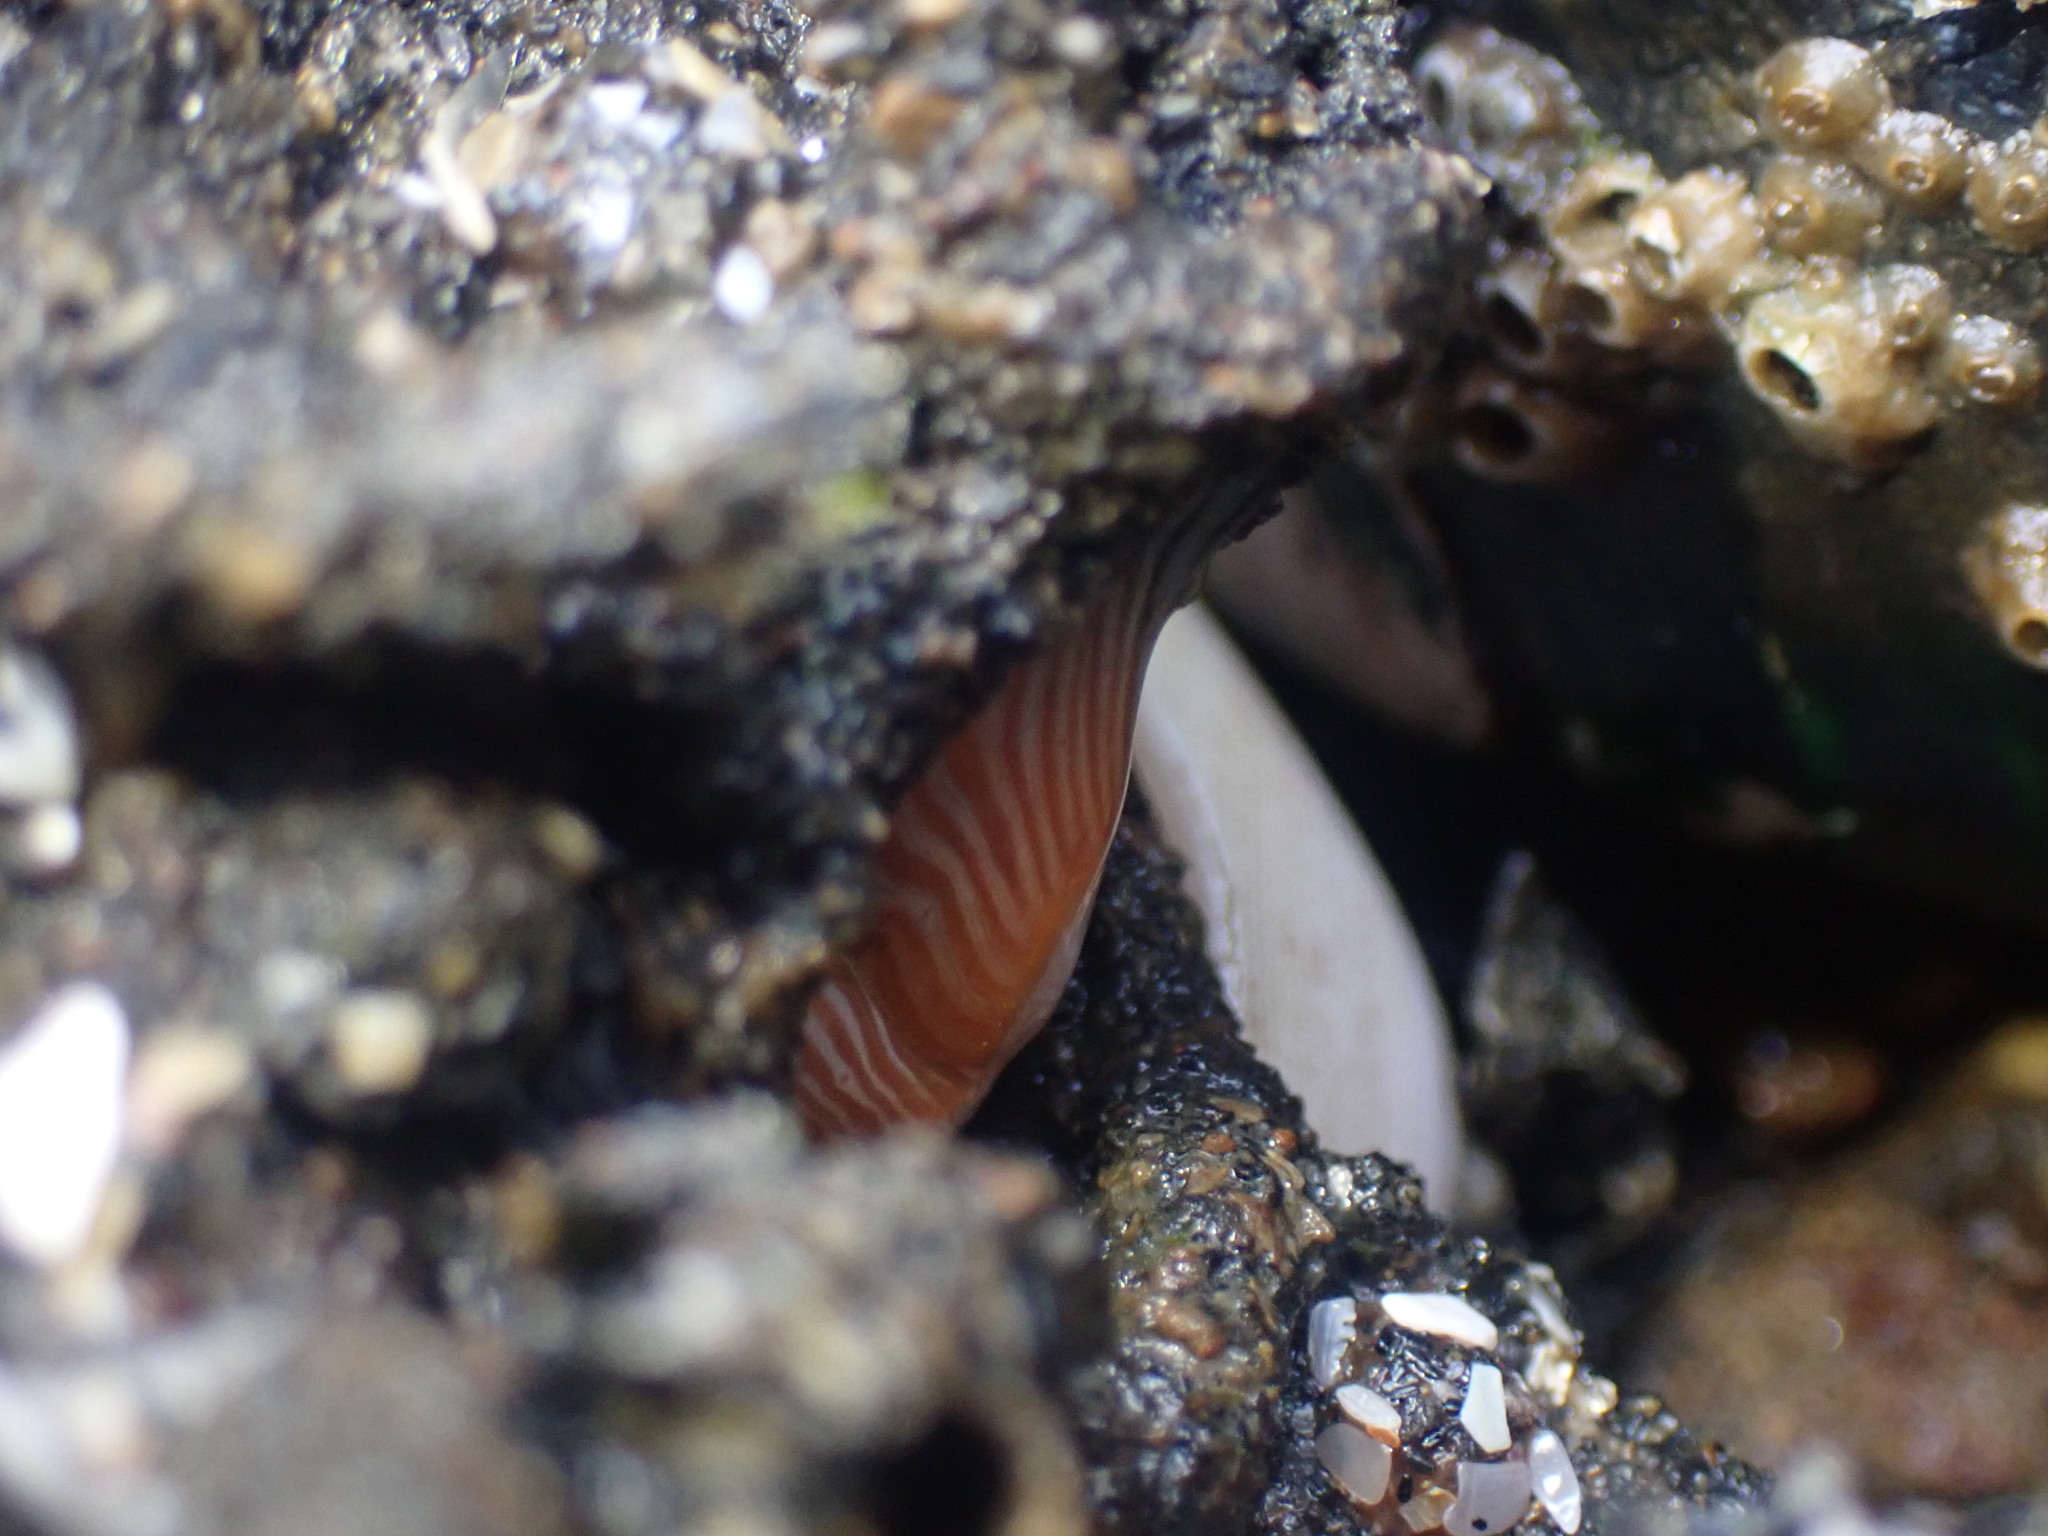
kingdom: Animalia
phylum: Cnidaria
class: Anthozoa
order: Actiniaria
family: Sagartiidae
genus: Anthothoe
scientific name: Anthothoe albocincta
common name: Orange striped anemone
